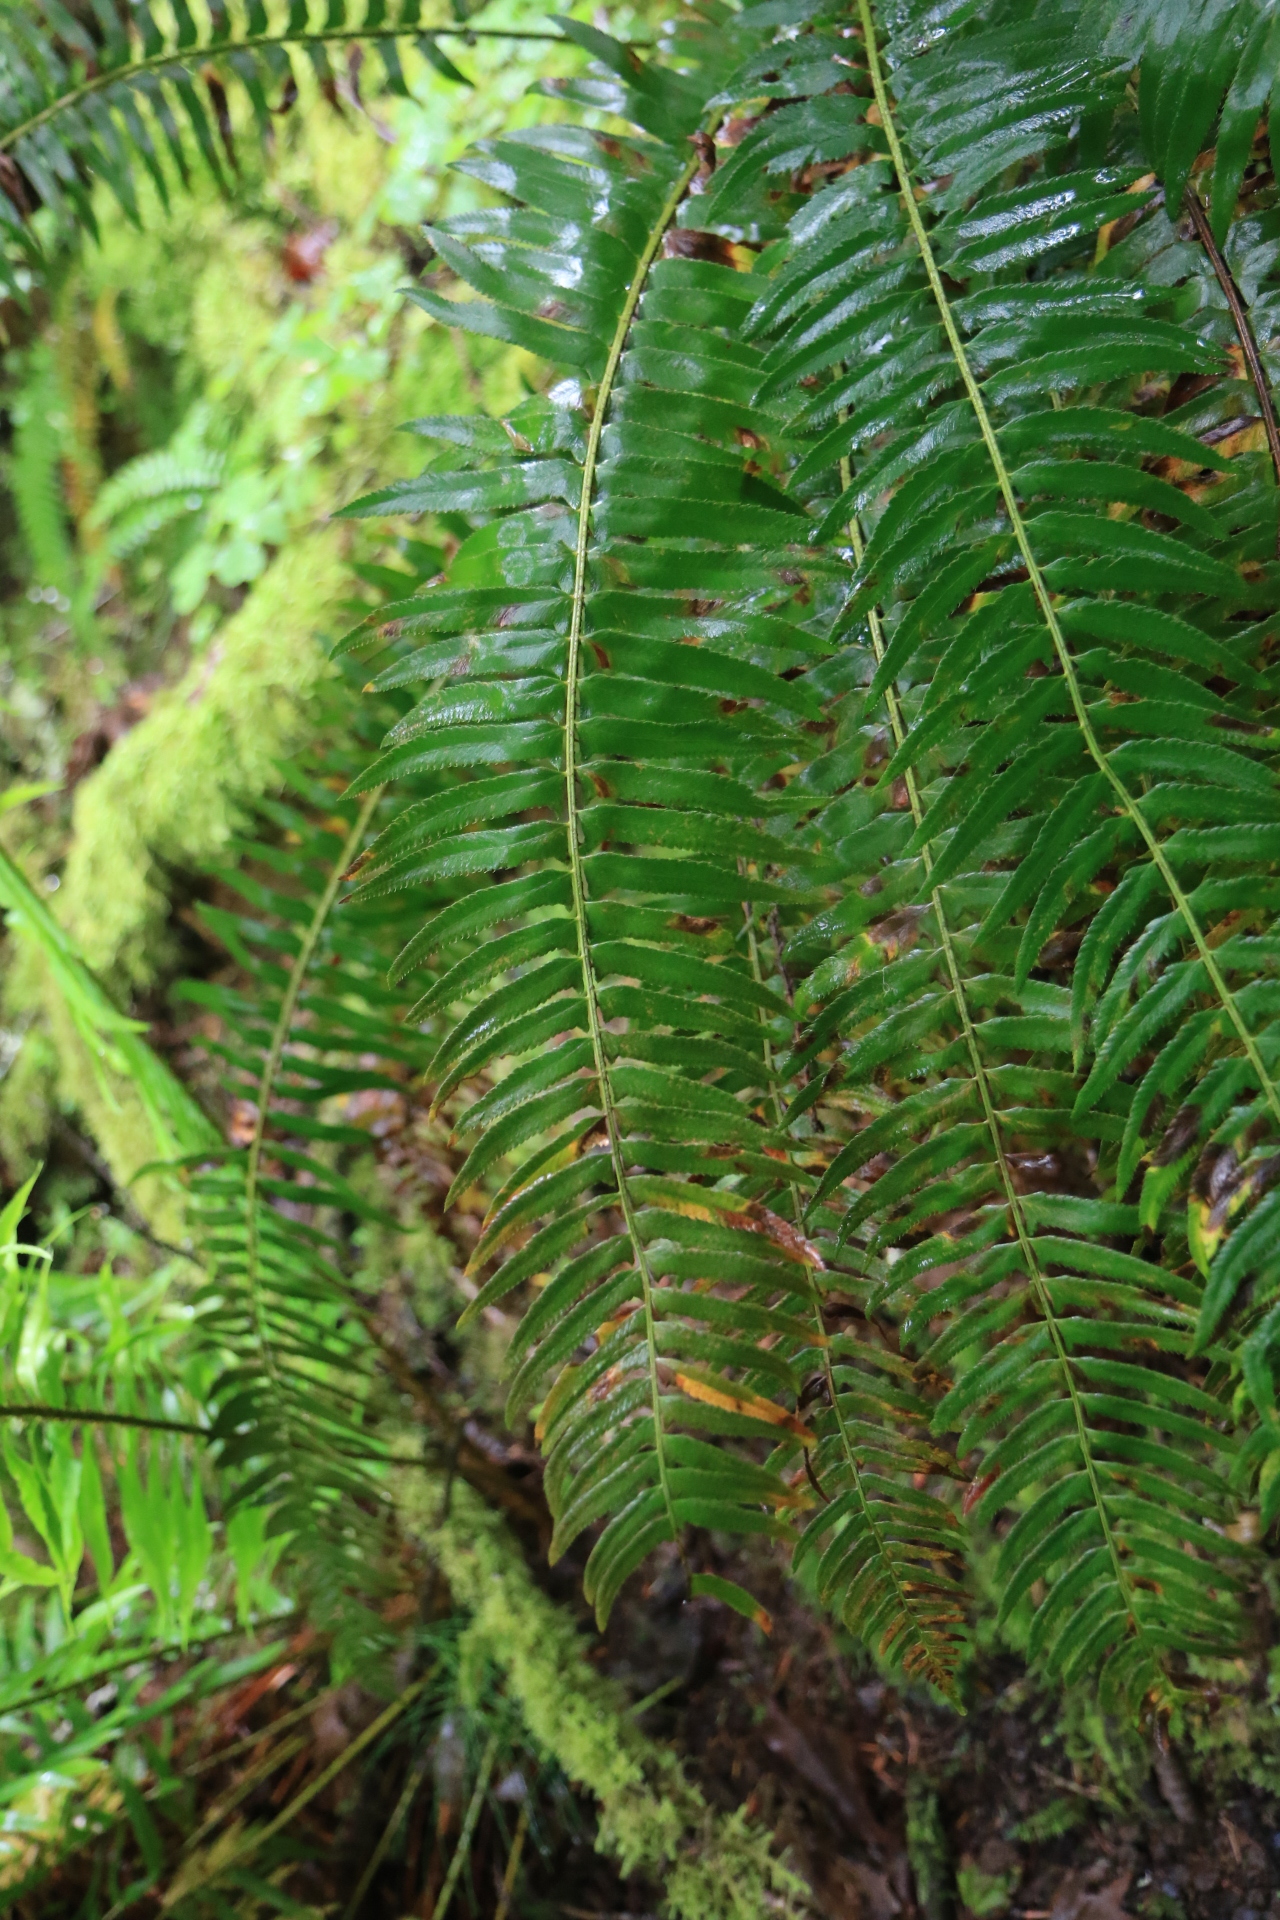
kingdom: Plantae
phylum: Tracheophyta
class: Polypodiopsida
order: Polypodiales
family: Dryopteridaceae
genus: Polystichum
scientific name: Polystichum munitum
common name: Western sword-fern
